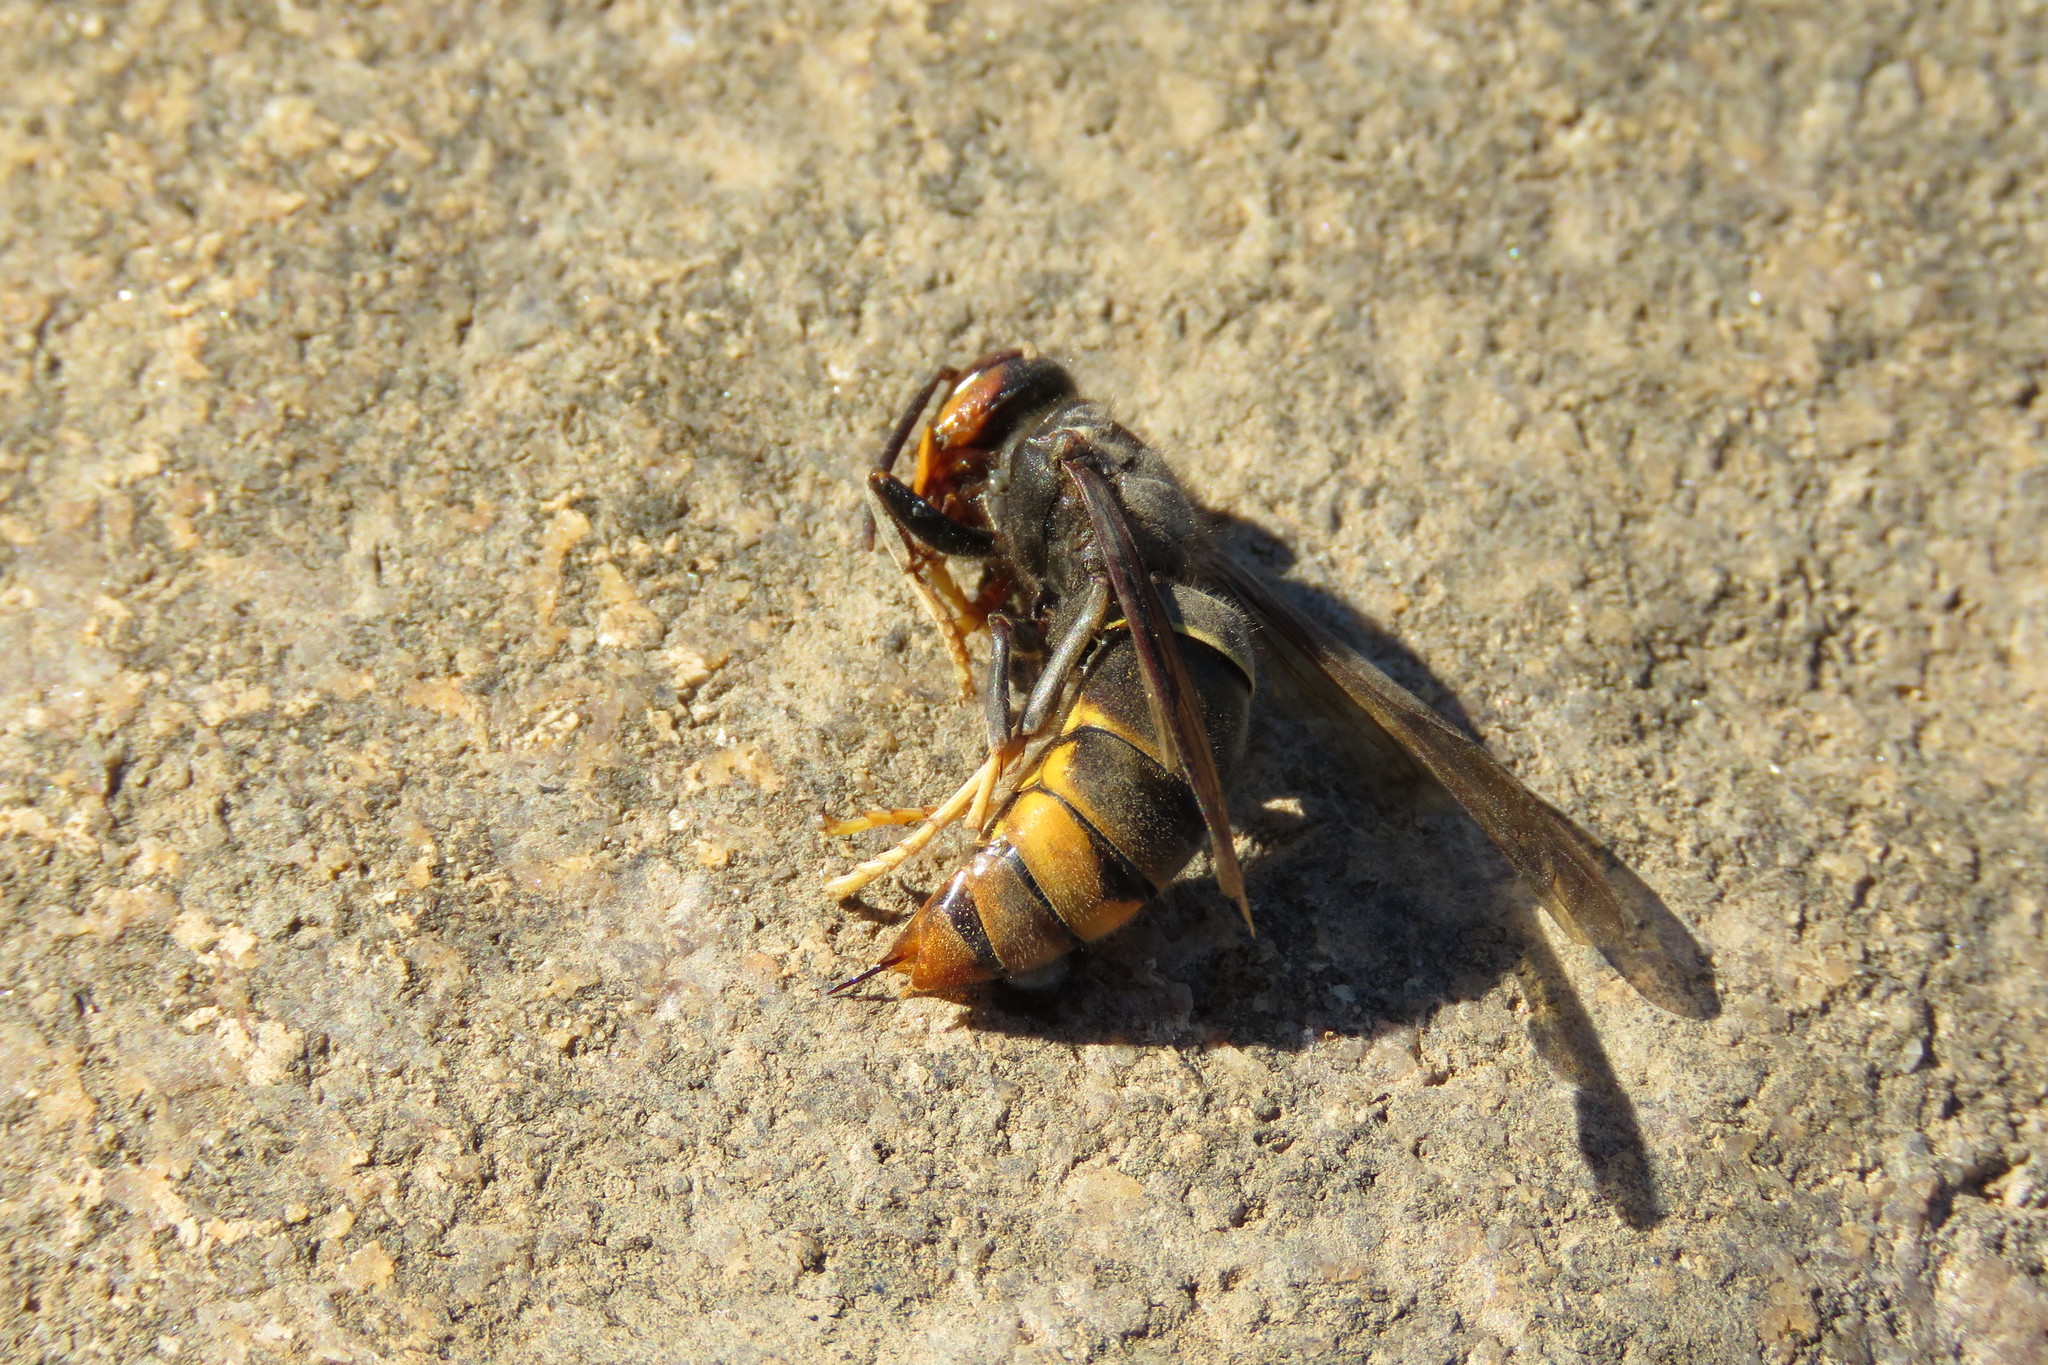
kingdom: Animalia
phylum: Arthropoda
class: Insecta
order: Hymenoptera
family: Vespidae
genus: Vespa
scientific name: Vespa velutina
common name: Asian hornet
